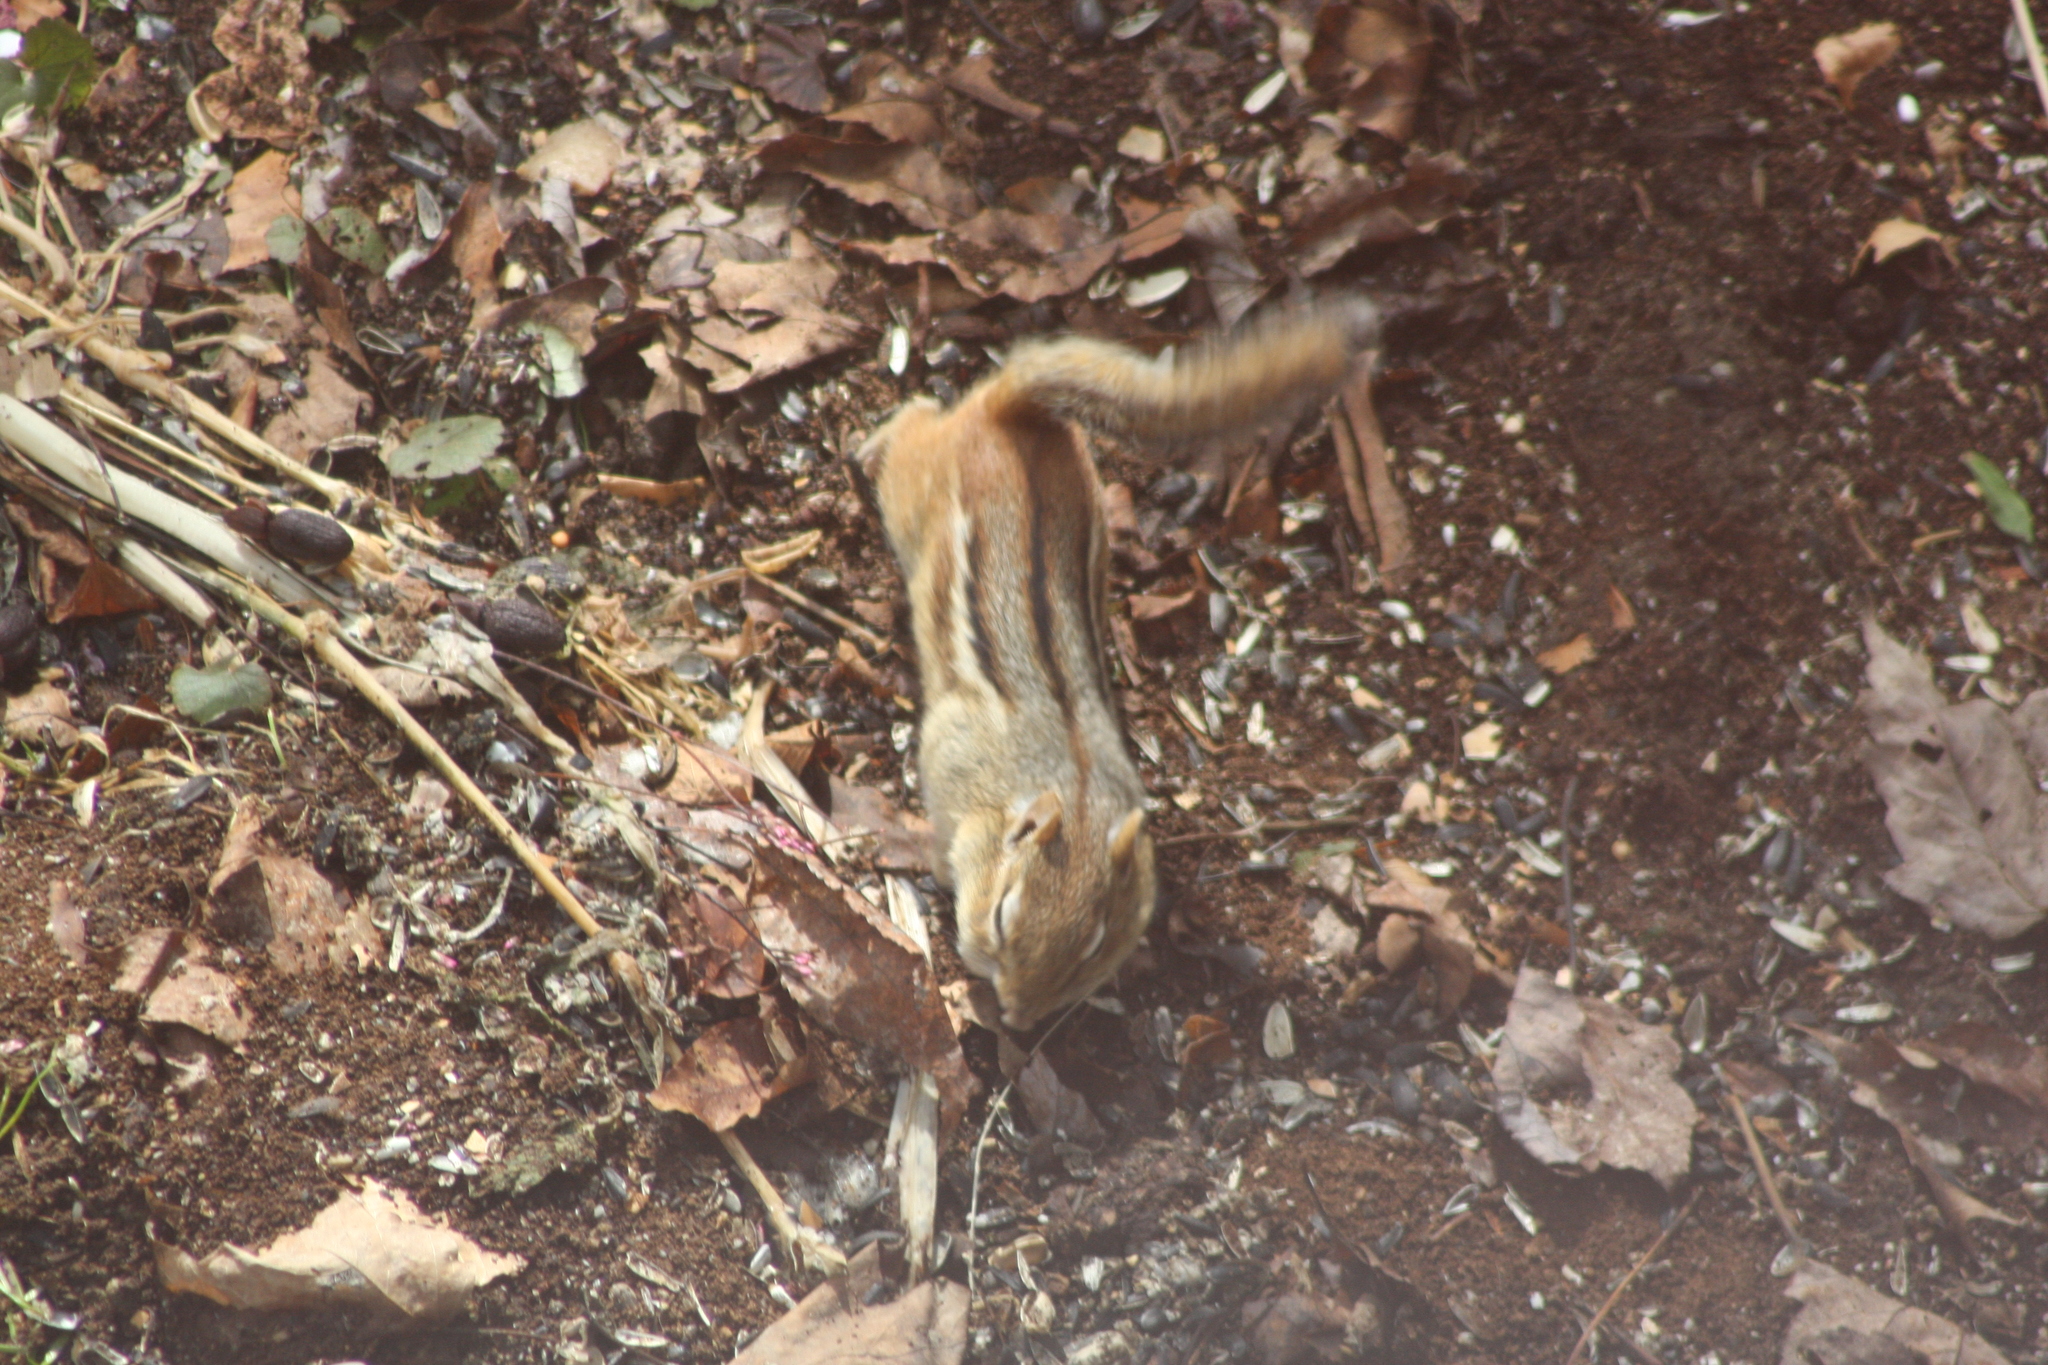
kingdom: Animalia
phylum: Chordata
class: Mammalia
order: Rodentia
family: Sciuridae
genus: Tamias
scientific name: Tamias striatus
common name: Eastern chipmunk
